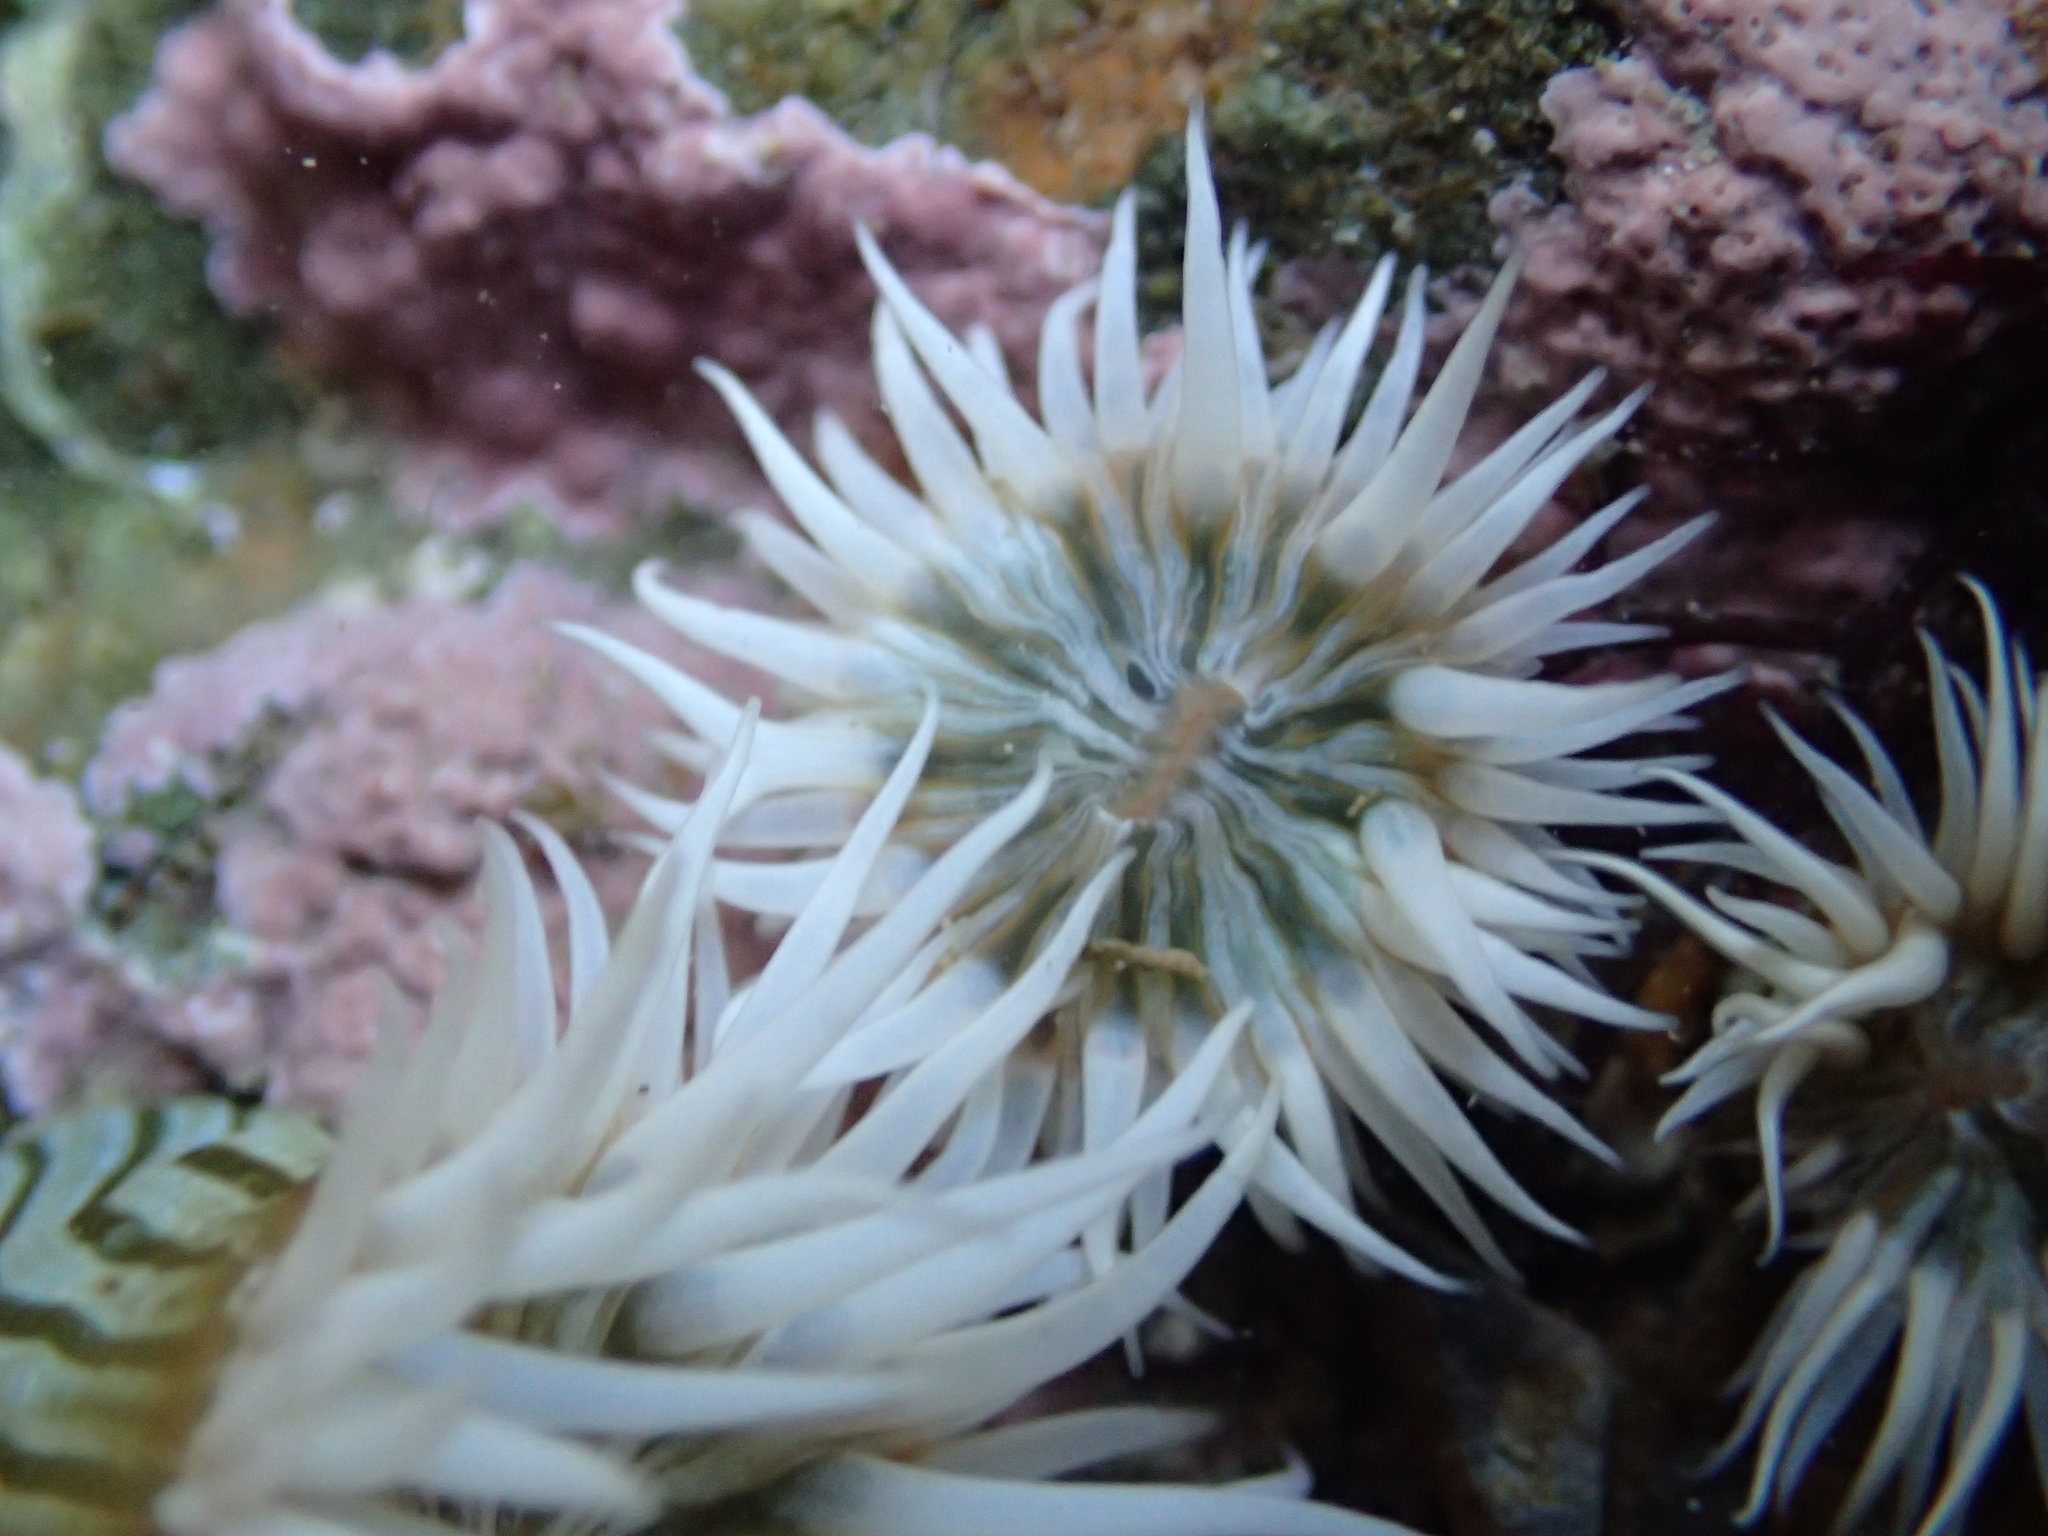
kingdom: Animalia
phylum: Cnidaria
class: Anthozoa
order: Actiniaria
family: Sagartiidae
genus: Anthothoe
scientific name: Anthothoe albocincta
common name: Orange striped anemone
